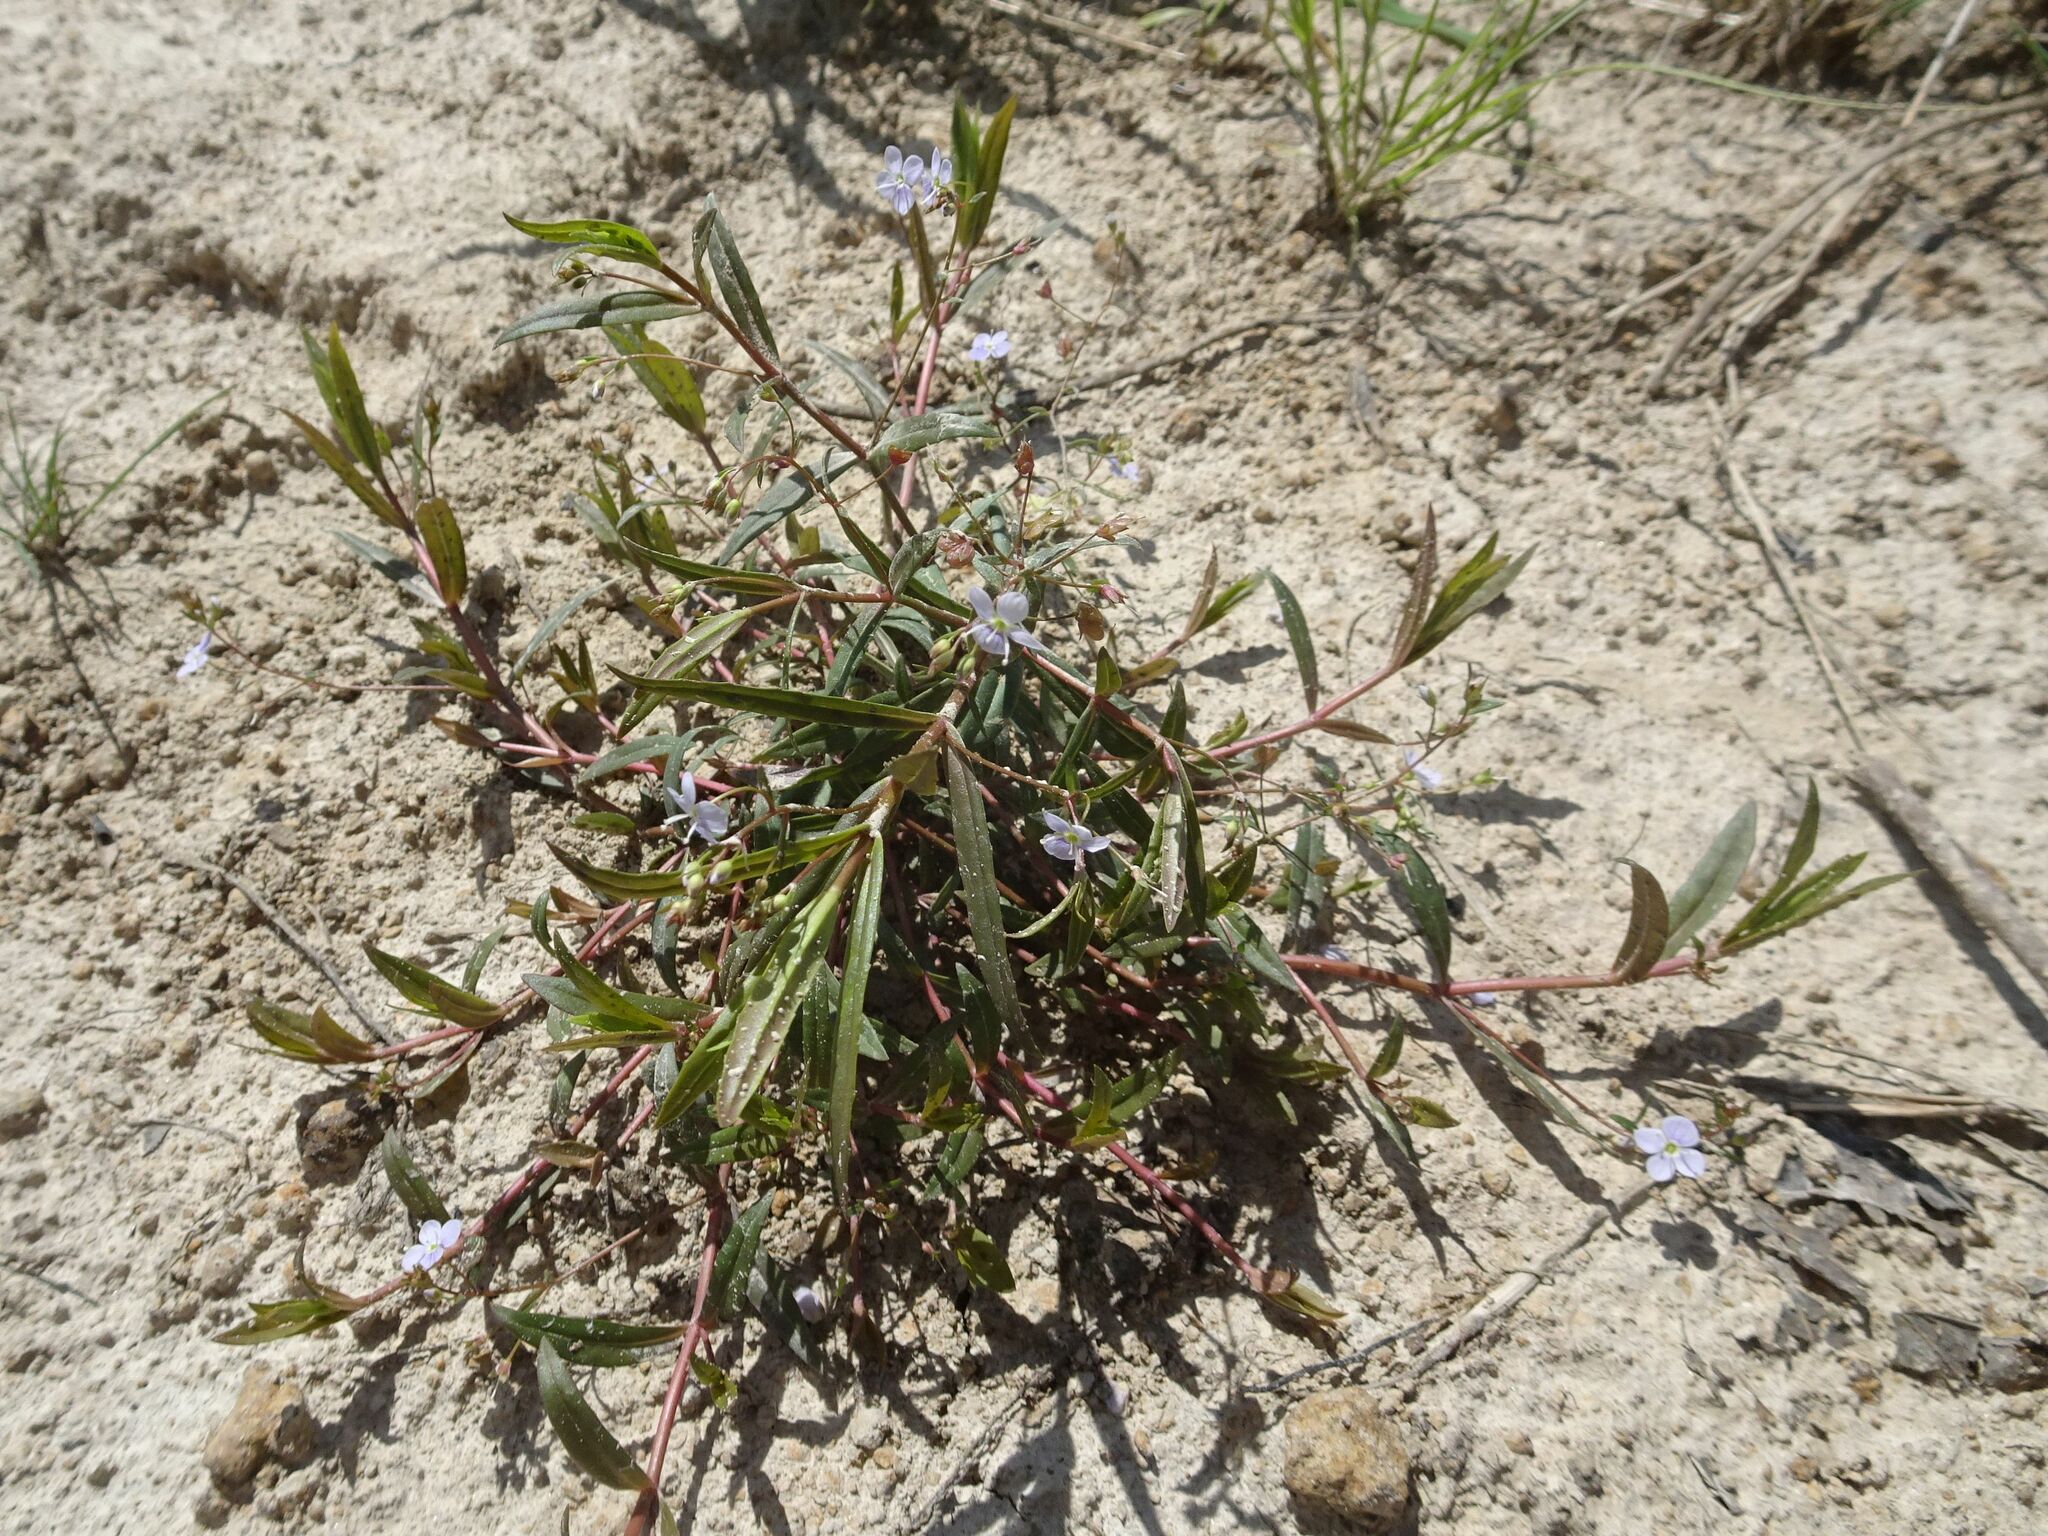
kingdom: Plantae
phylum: Tracheophyta
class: Magnoliopsida
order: Lamiales
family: Plantaginaceae
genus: Veronica
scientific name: Veronica scutellata
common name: Marsh speedwell
